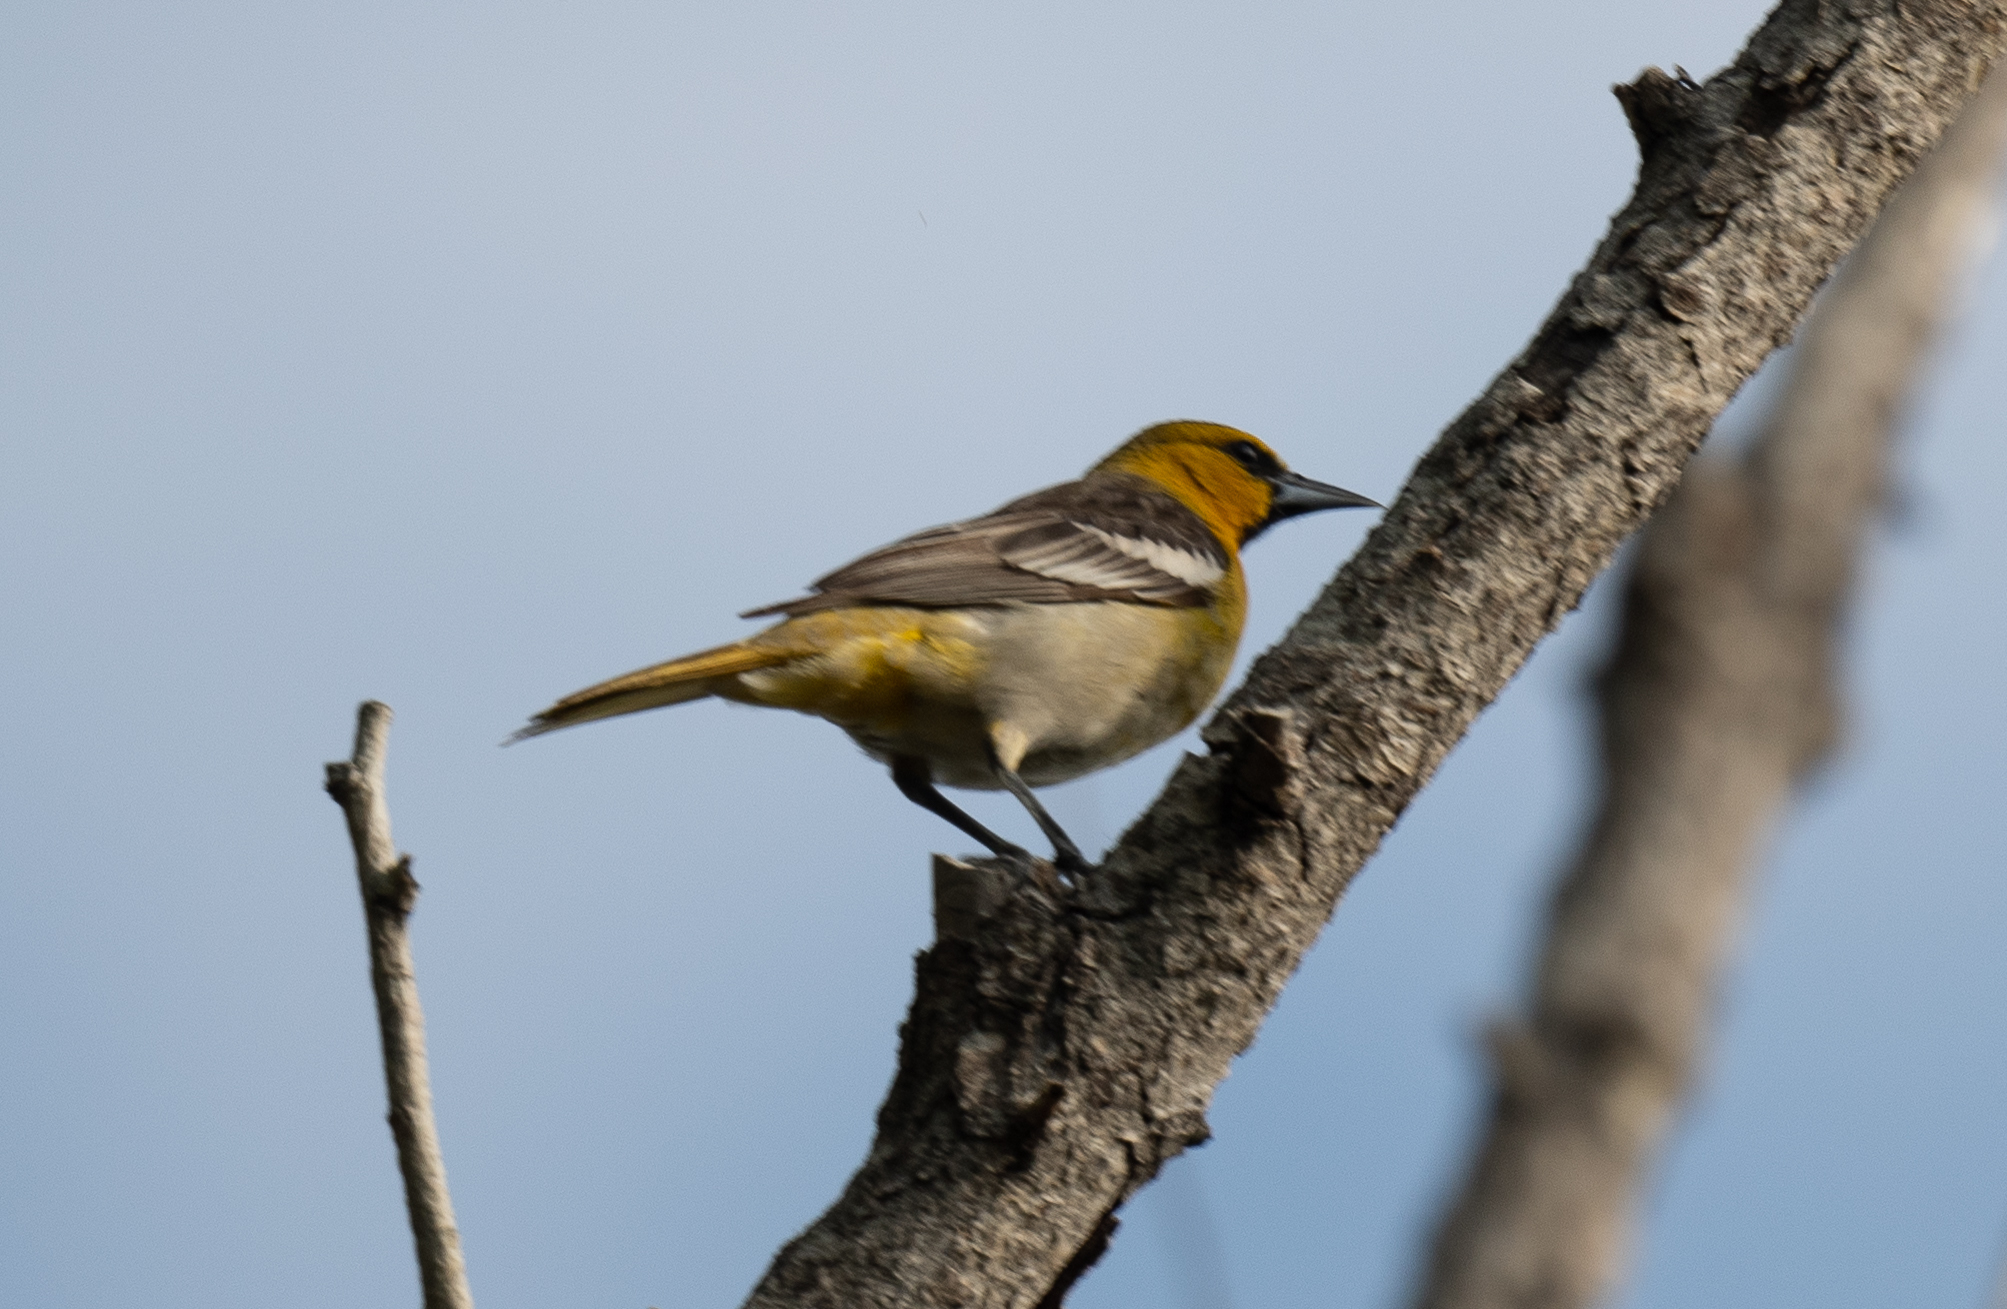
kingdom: Animalia
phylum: Chordata
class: Aves
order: Passeriformes
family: Icteridae
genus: Icterus
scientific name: Icterus bullockii
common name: Bullock's oriole
